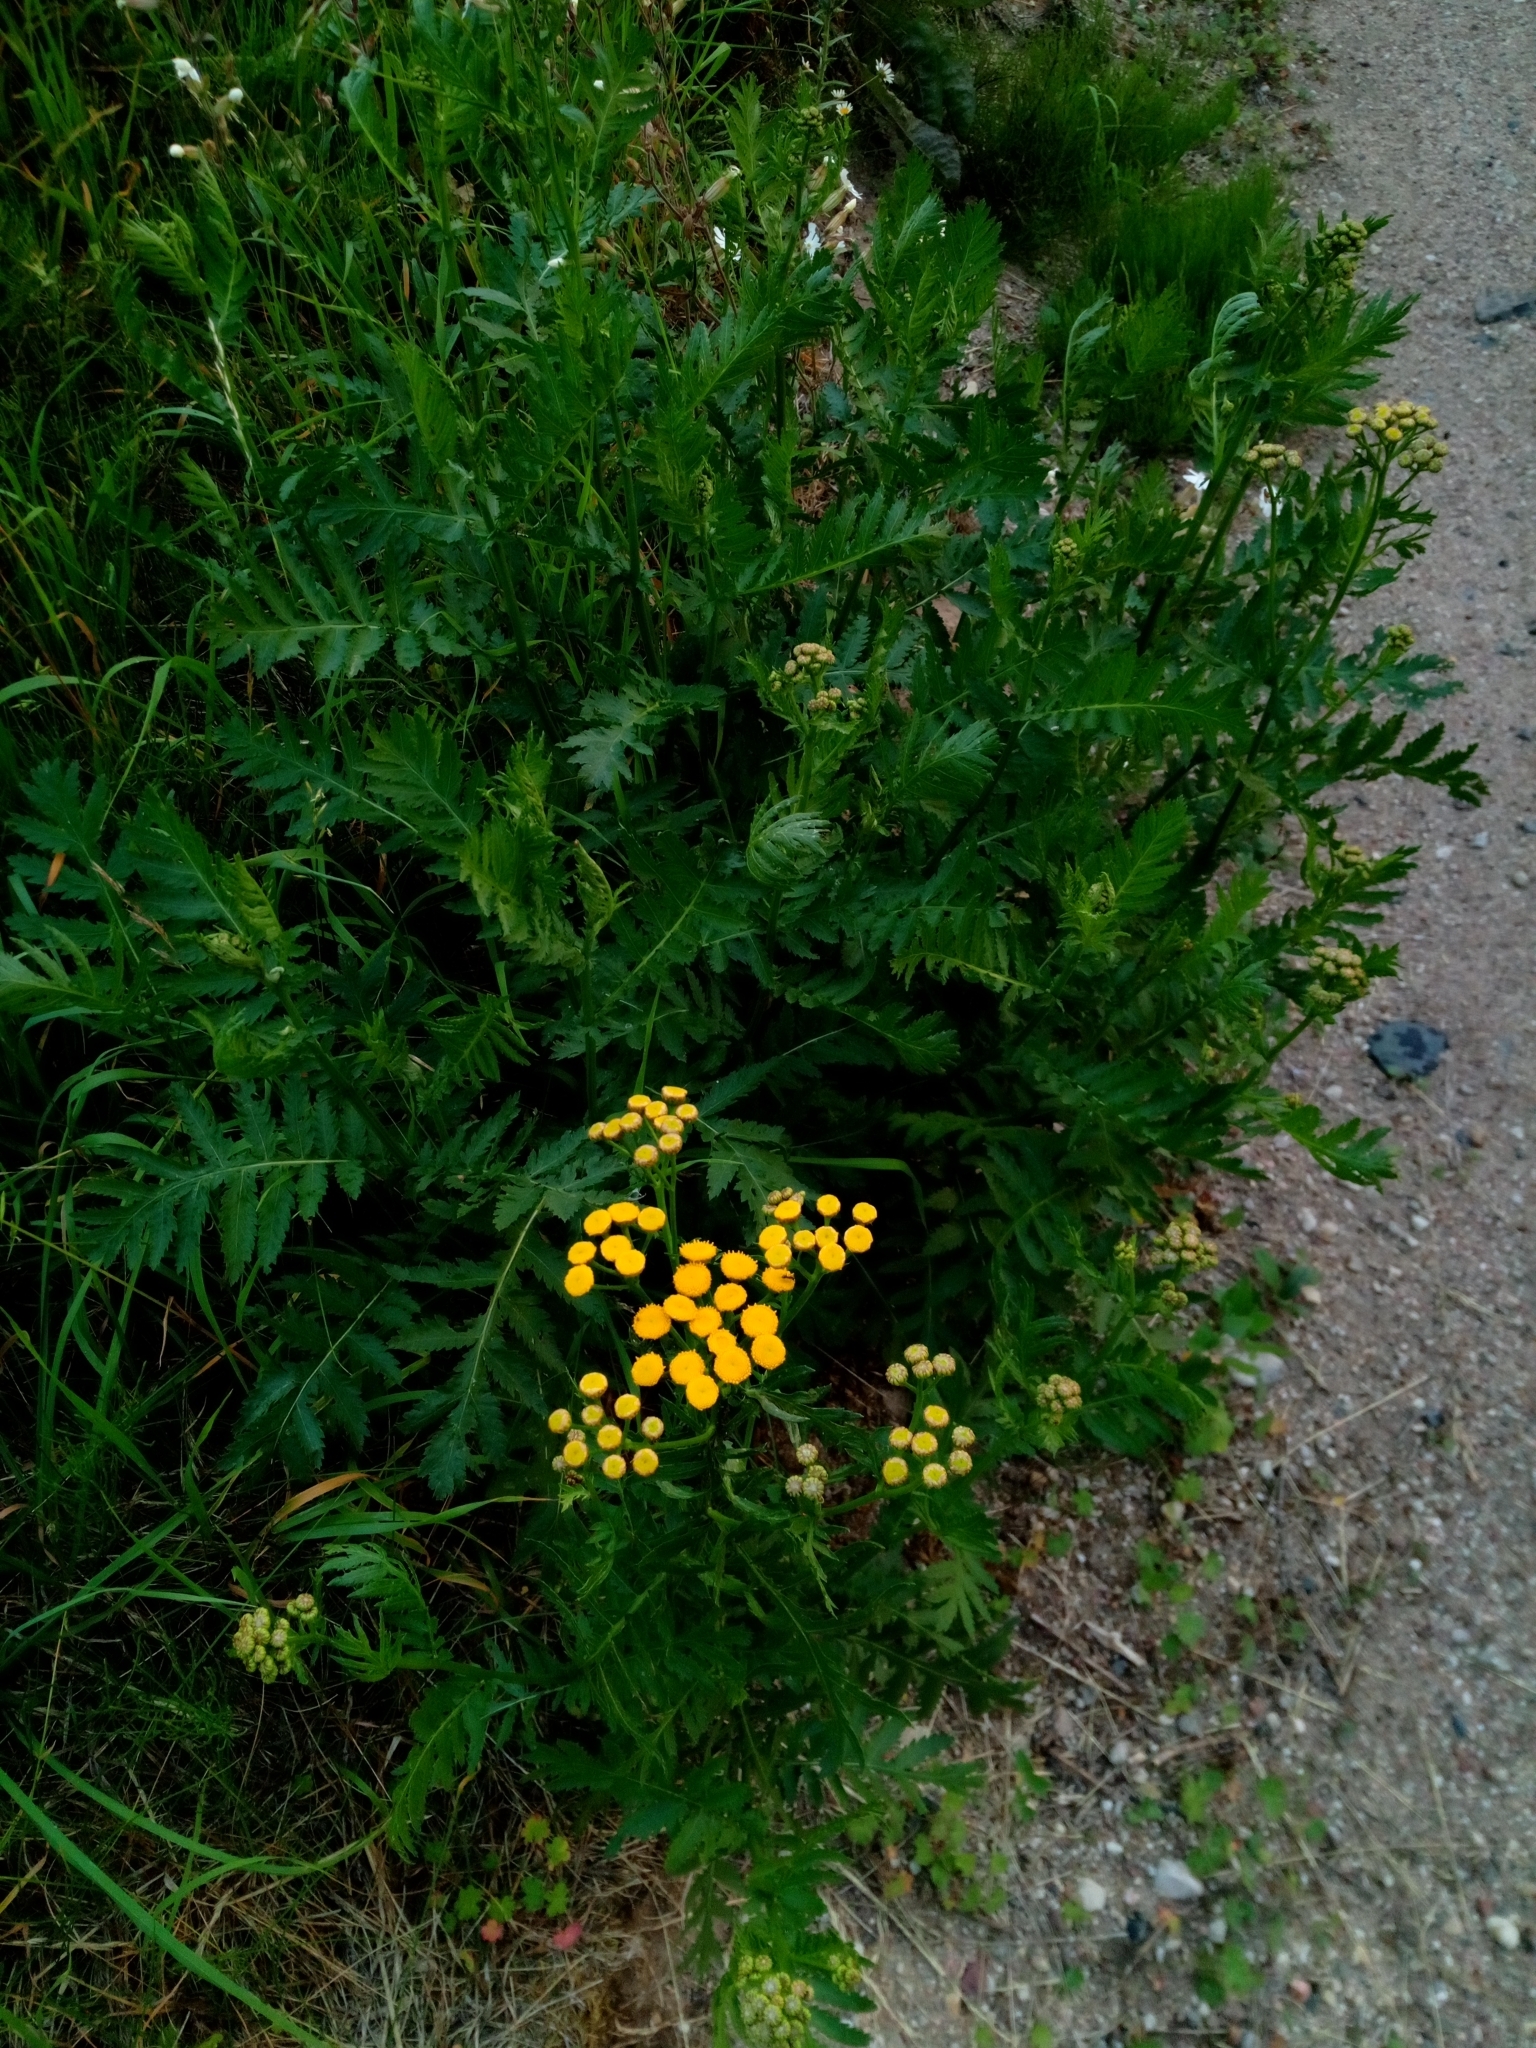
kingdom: Plantae
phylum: Tracheophyta
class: Magnoliopsida
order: Asterales
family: Asteraceae
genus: Tanacetum
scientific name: Tanacetum vulgare
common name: Common tansy
